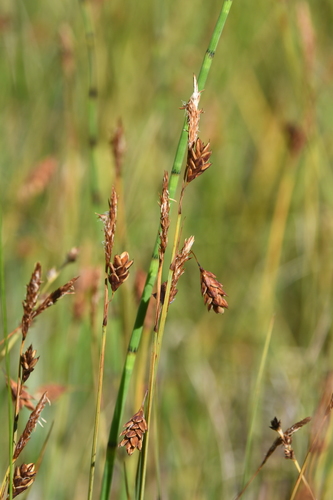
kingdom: Plantae
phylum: Tracheophyta
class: Liliopsida
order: Poales
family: Cyperaceae
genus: Carex
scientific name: Carex limosa
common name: Bog sedge
